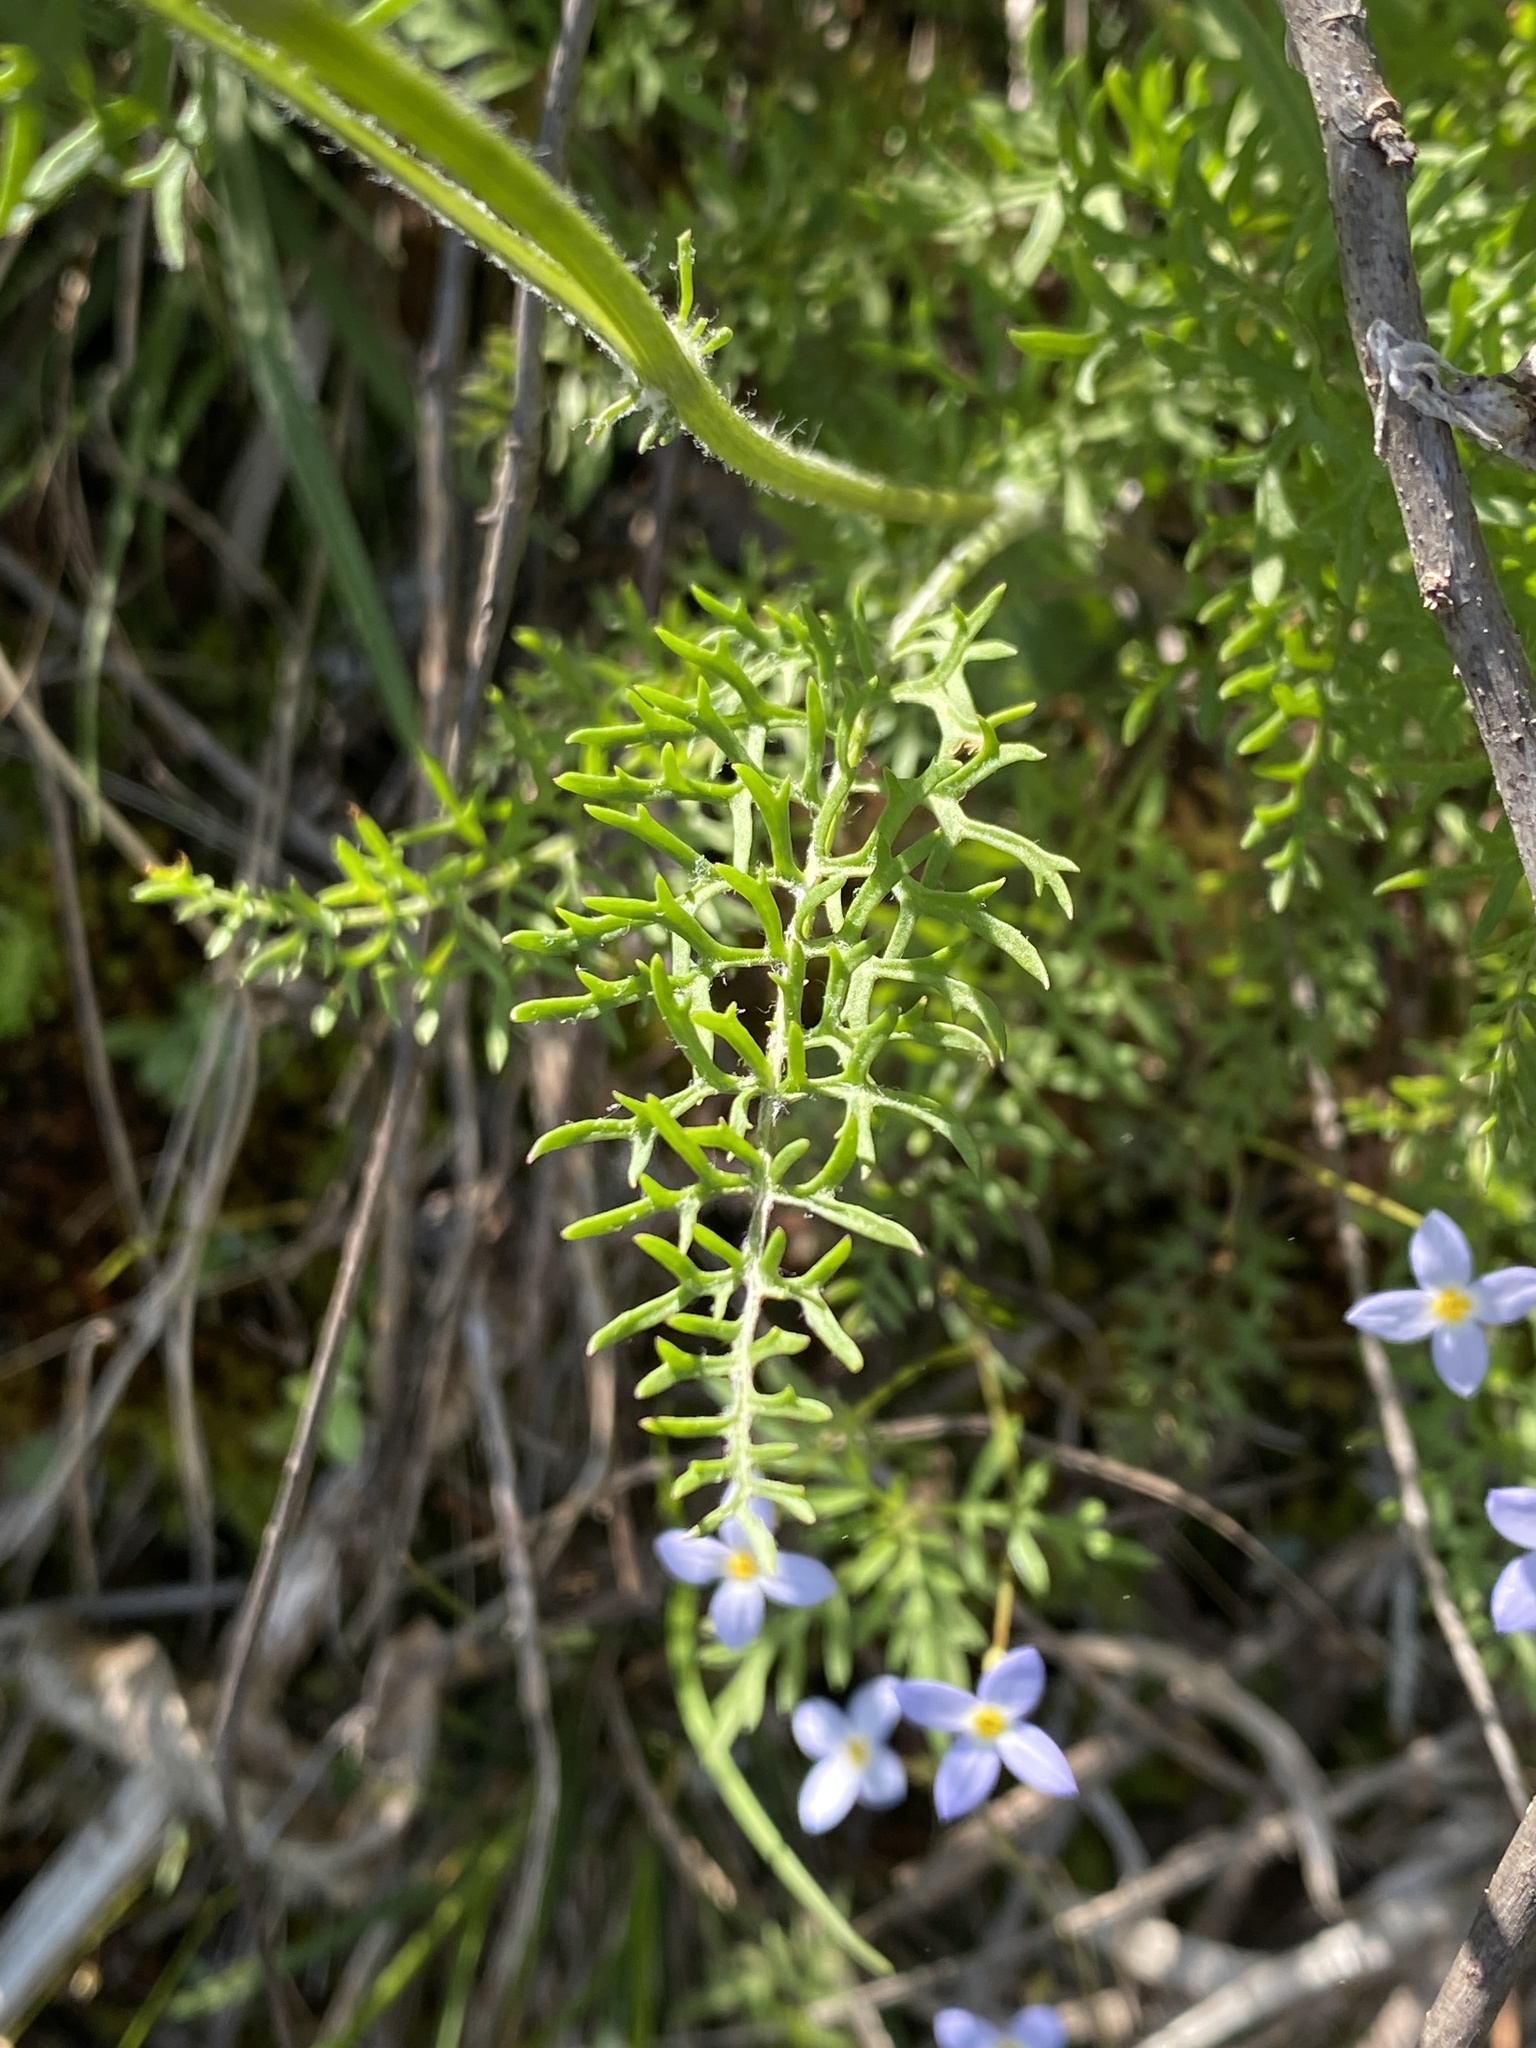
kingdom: Plantae
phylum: Tracheophyta
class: Magnoliopsida
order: Asterales
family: Asteraceae
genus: Packera
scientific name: Packera millefolia
